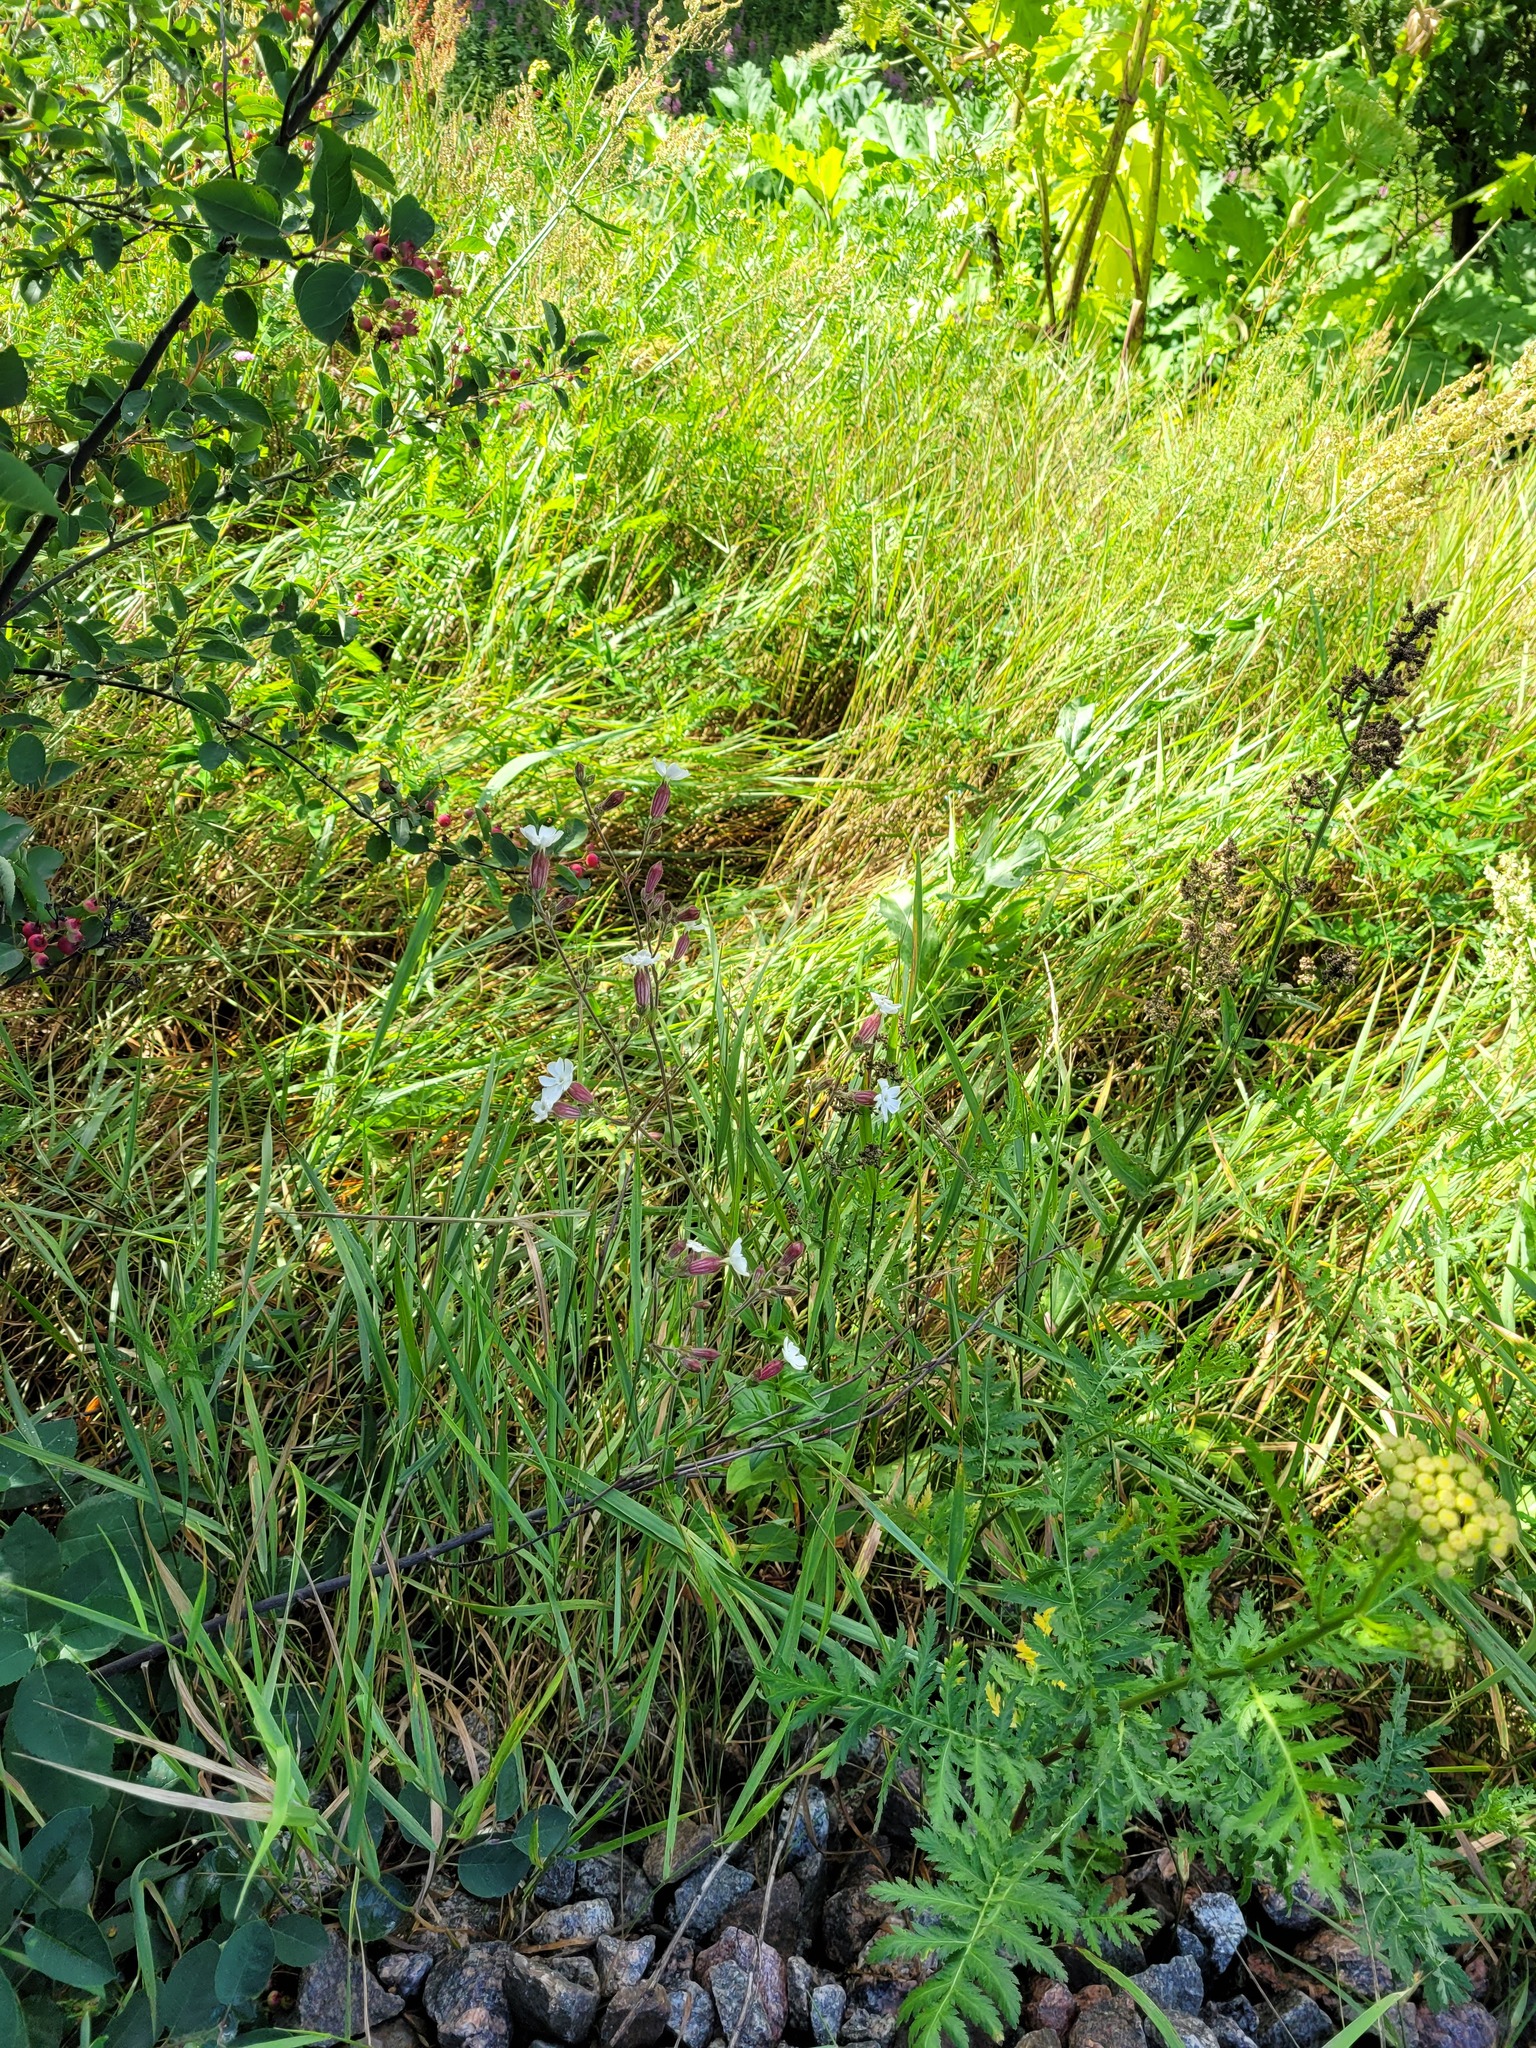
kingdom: Plantae
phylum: Tracheophyta
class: Magnoliopsida
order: Caryophyllales
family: Caryophyllaceae
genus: Silene
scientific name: Silene latifolia
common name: White campion
